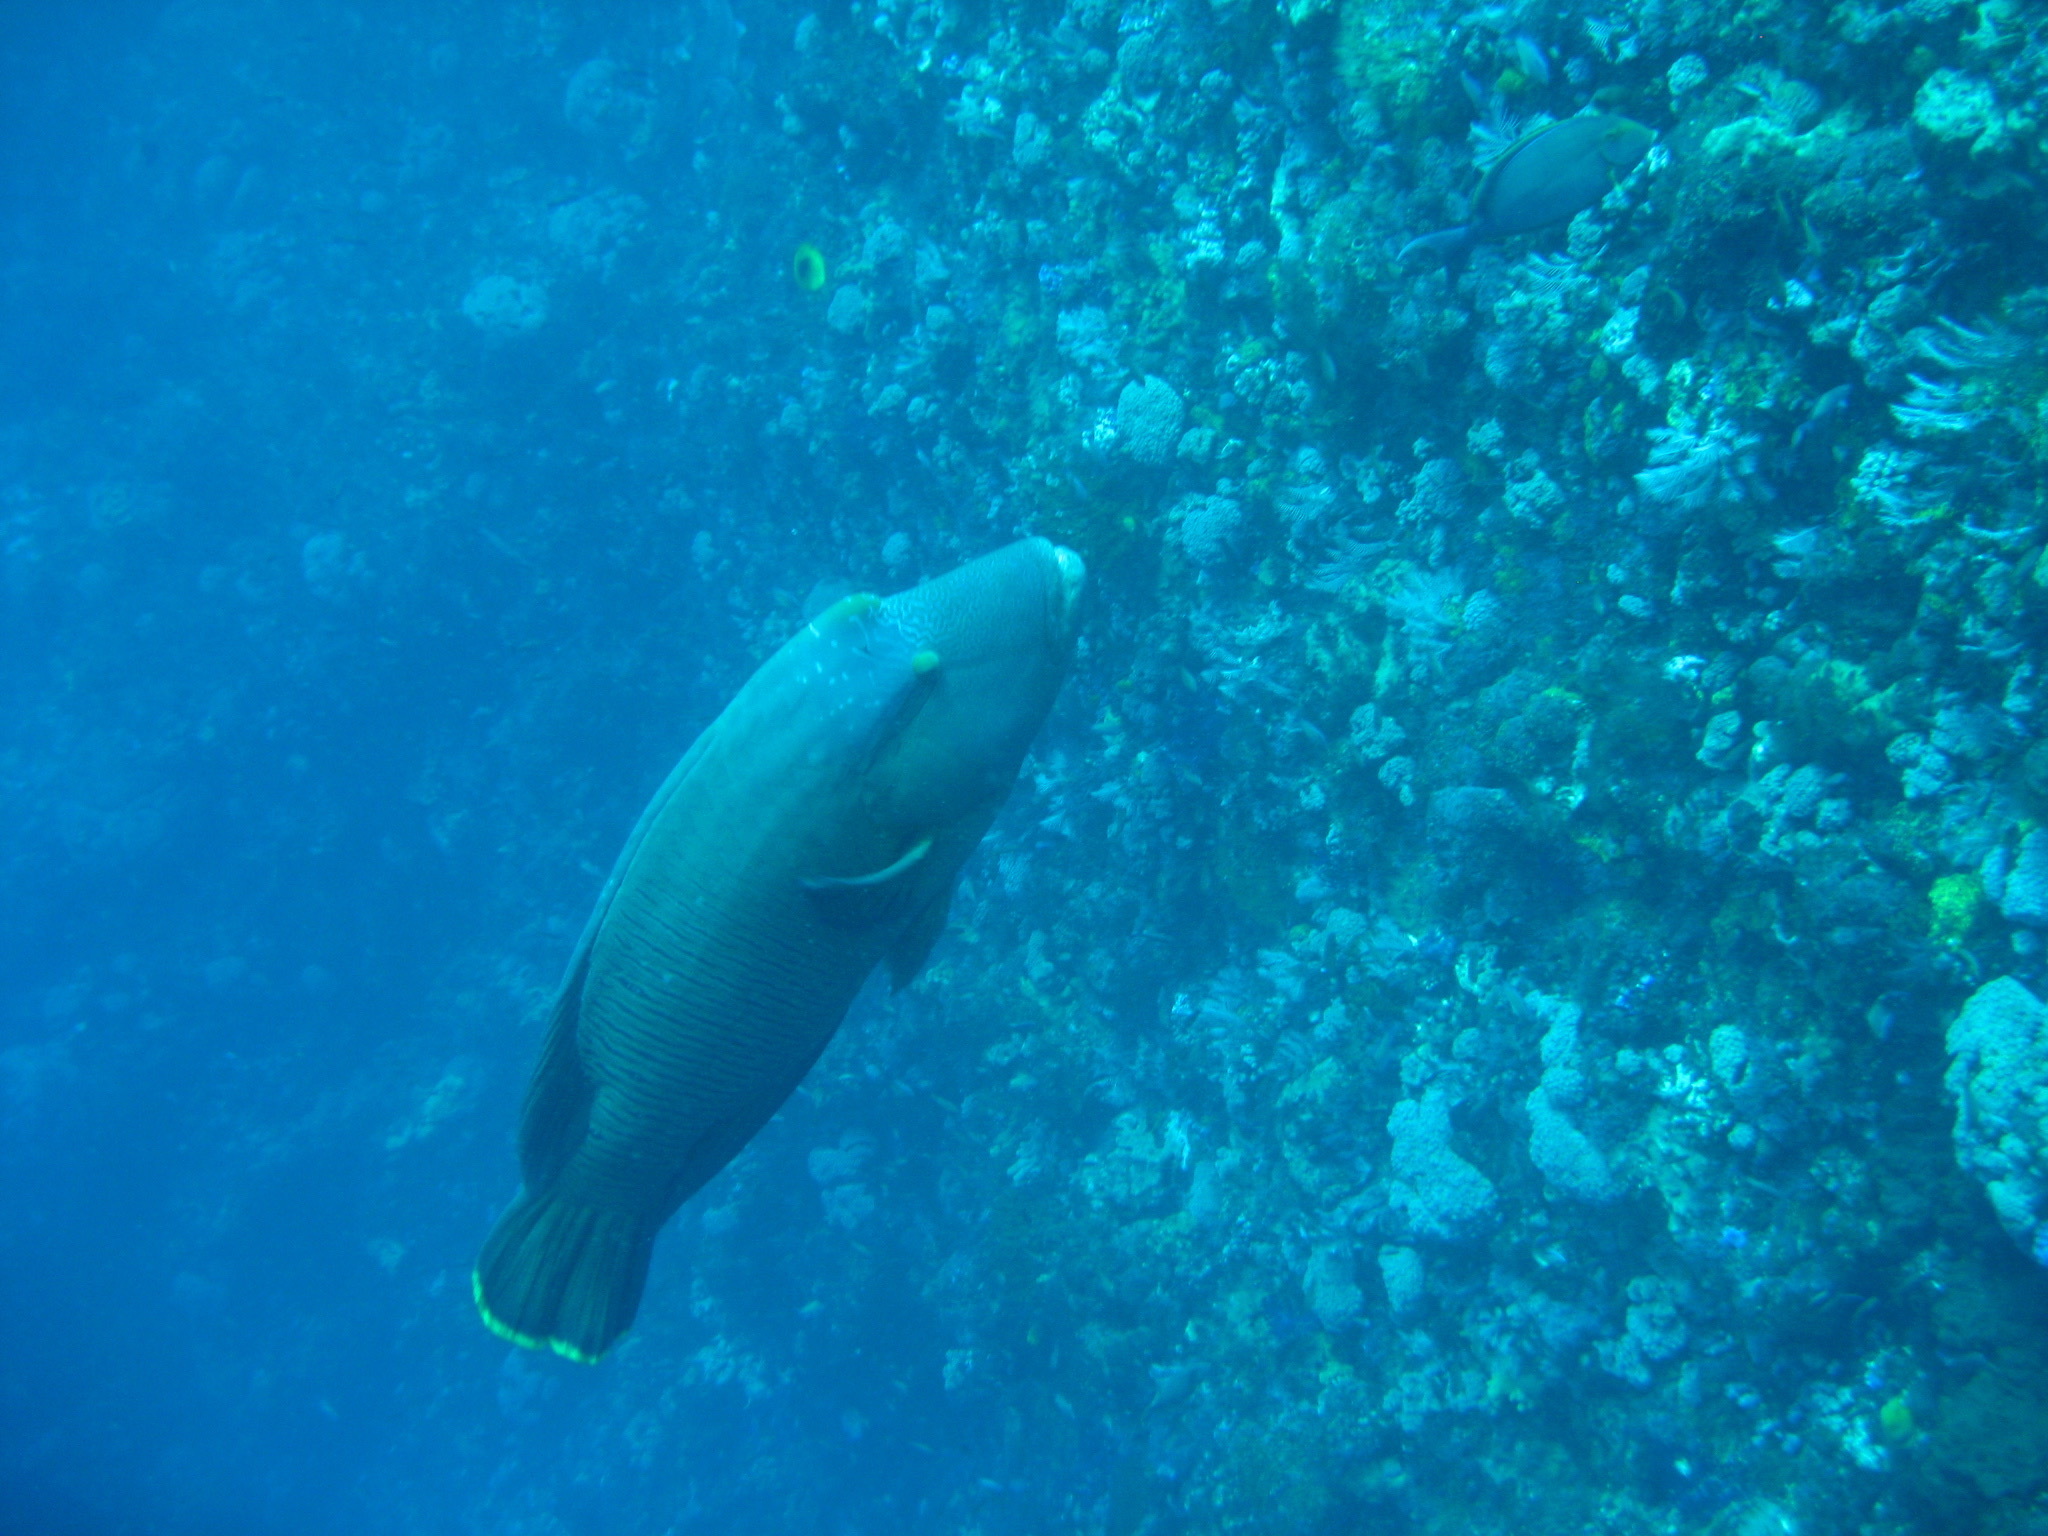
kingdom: Animalia
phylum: Chordata
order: Perciformes
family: Labridae
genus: Cheilinus
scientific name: Cheilinus undulatus
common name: Humphead wrasse
